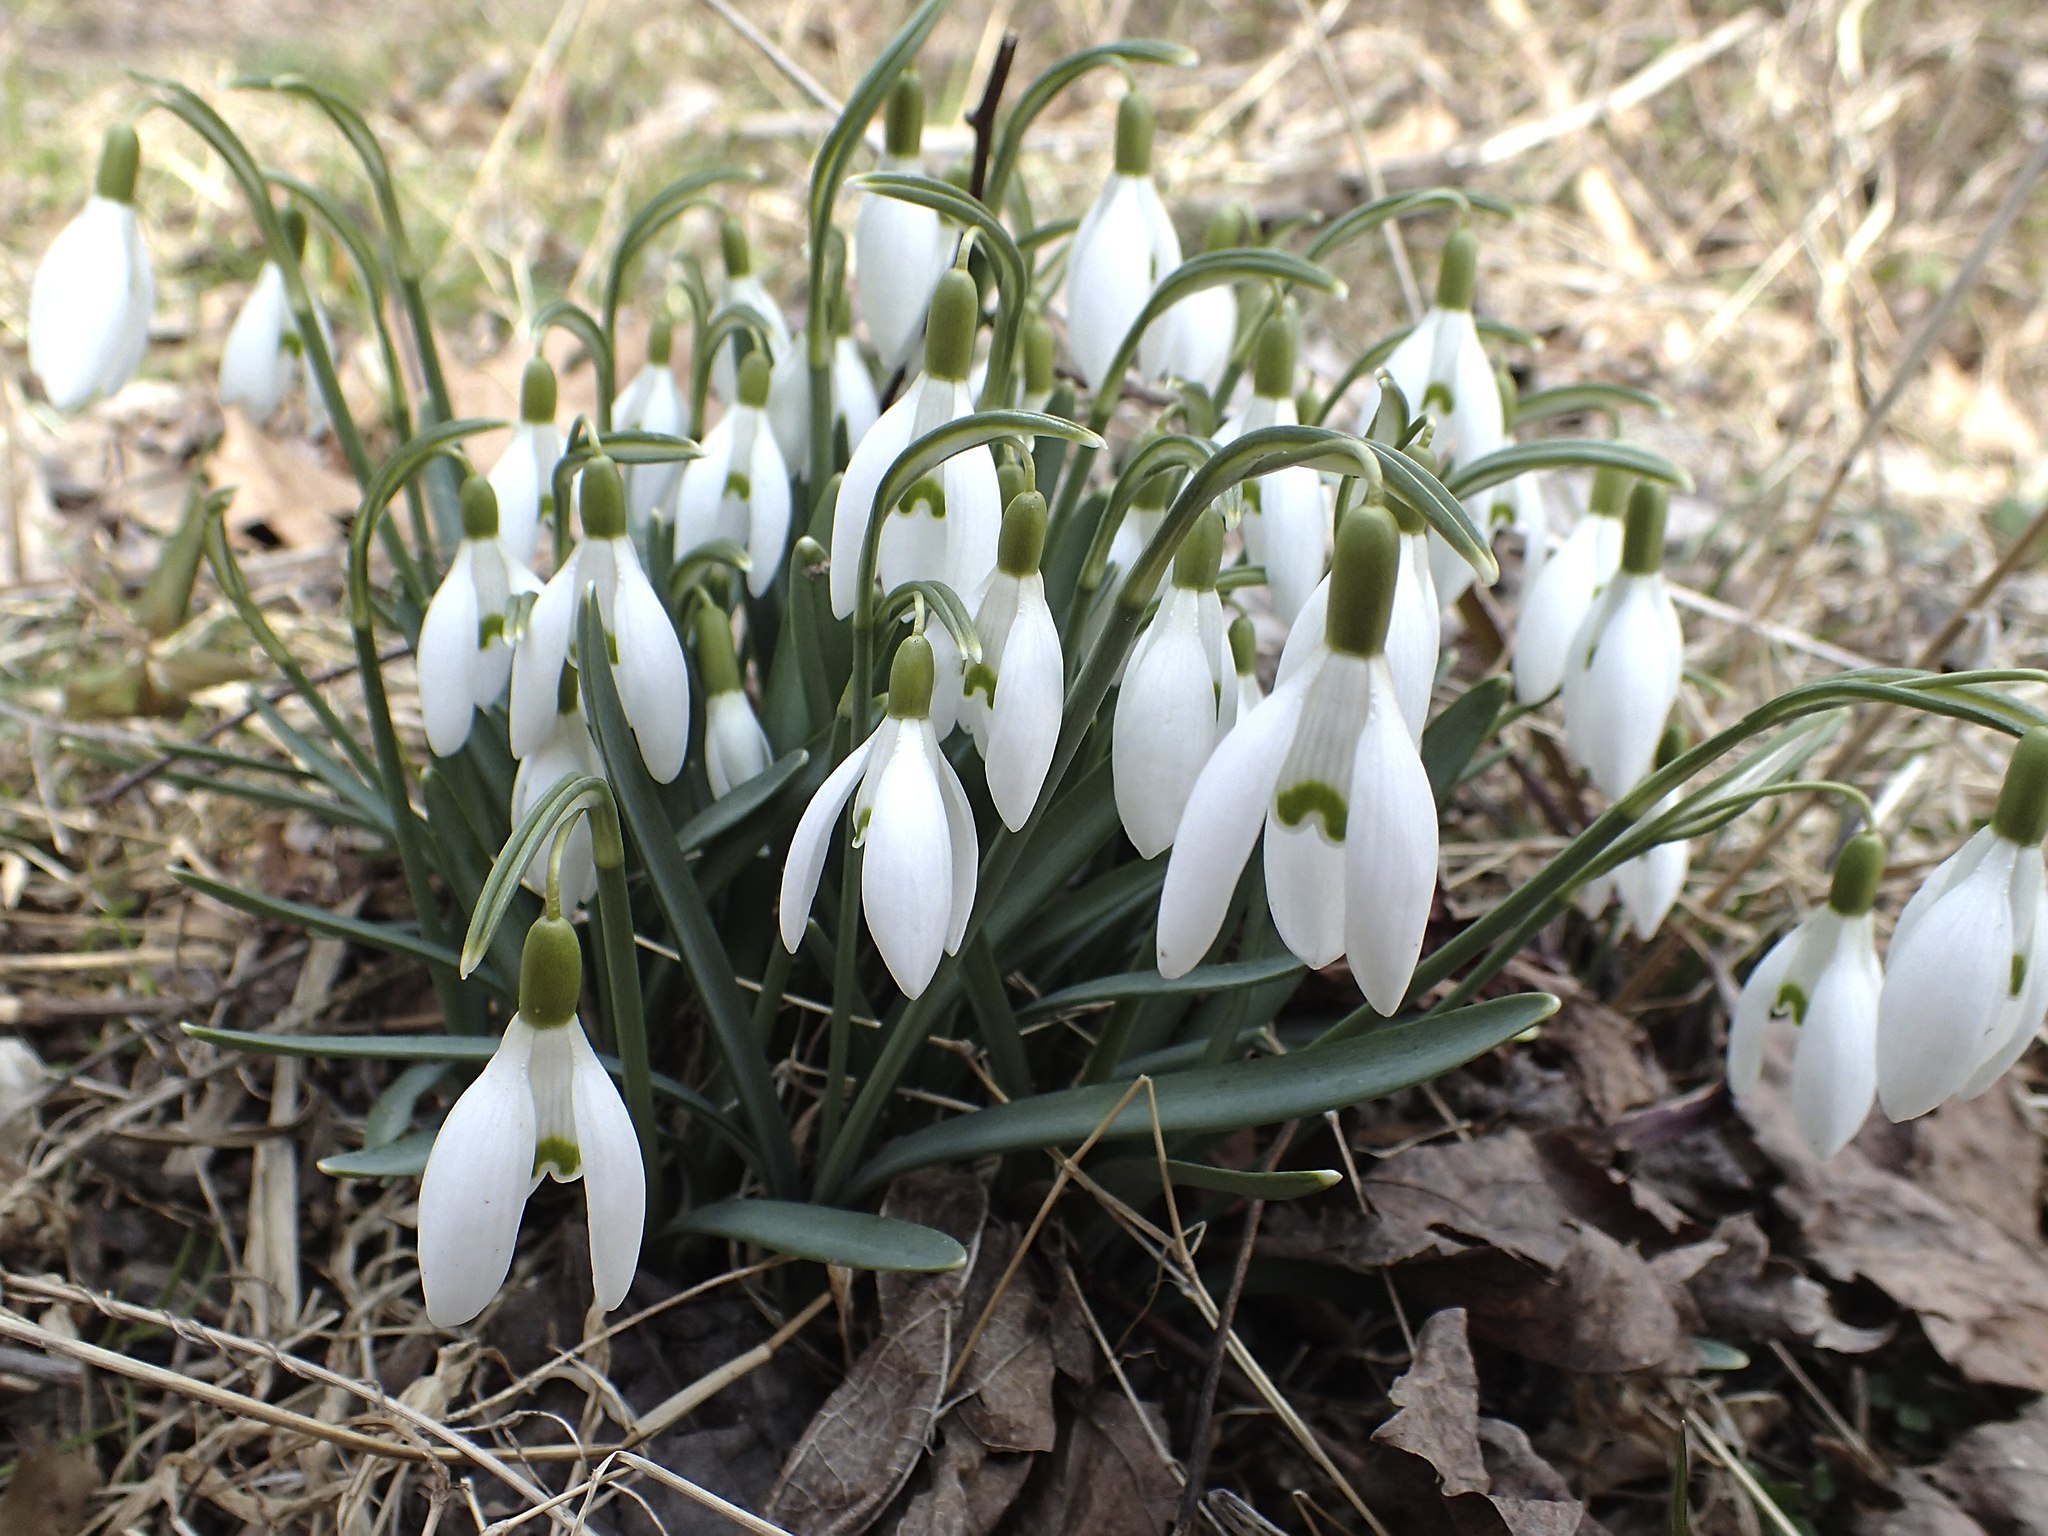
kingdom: Plantae
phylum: Tracheophyta
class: Liliopsida
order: Asparagales
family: Amaryllidaceae
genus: Galanthus
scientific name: Galanthus nivalis
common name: Snowdrop
